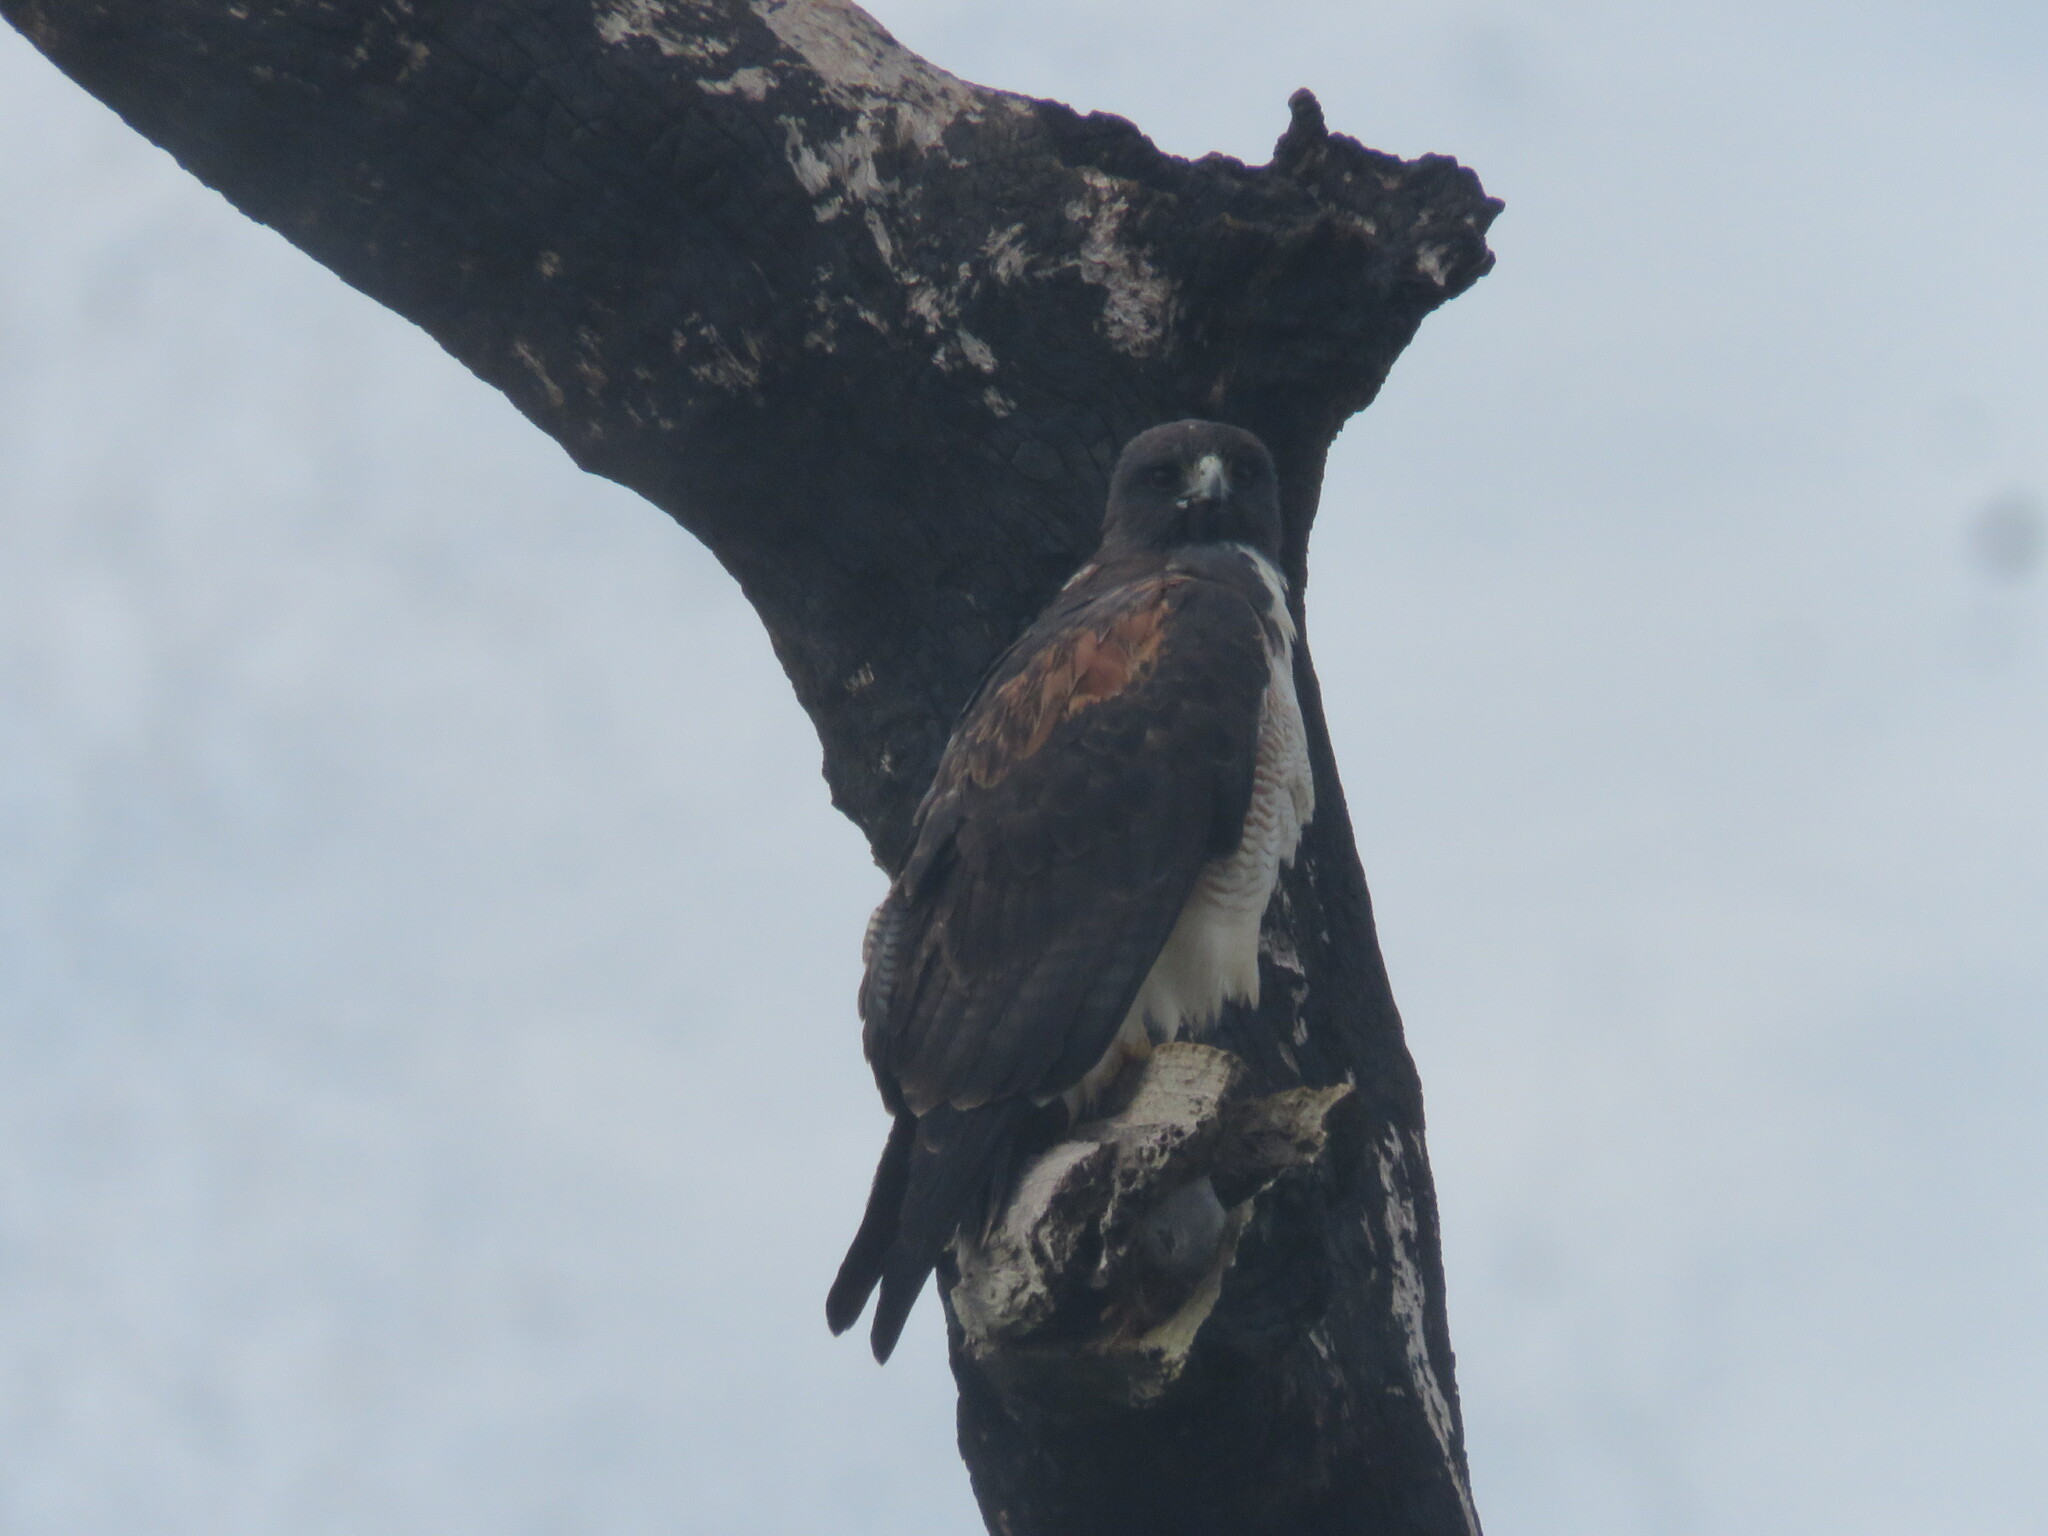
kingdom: Animalia
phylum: Chordata
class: Aves
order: Accipitriformes
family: Accipitridae
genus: Buteo
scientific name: Buteo albicaudatus
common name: White-tailed hawk
